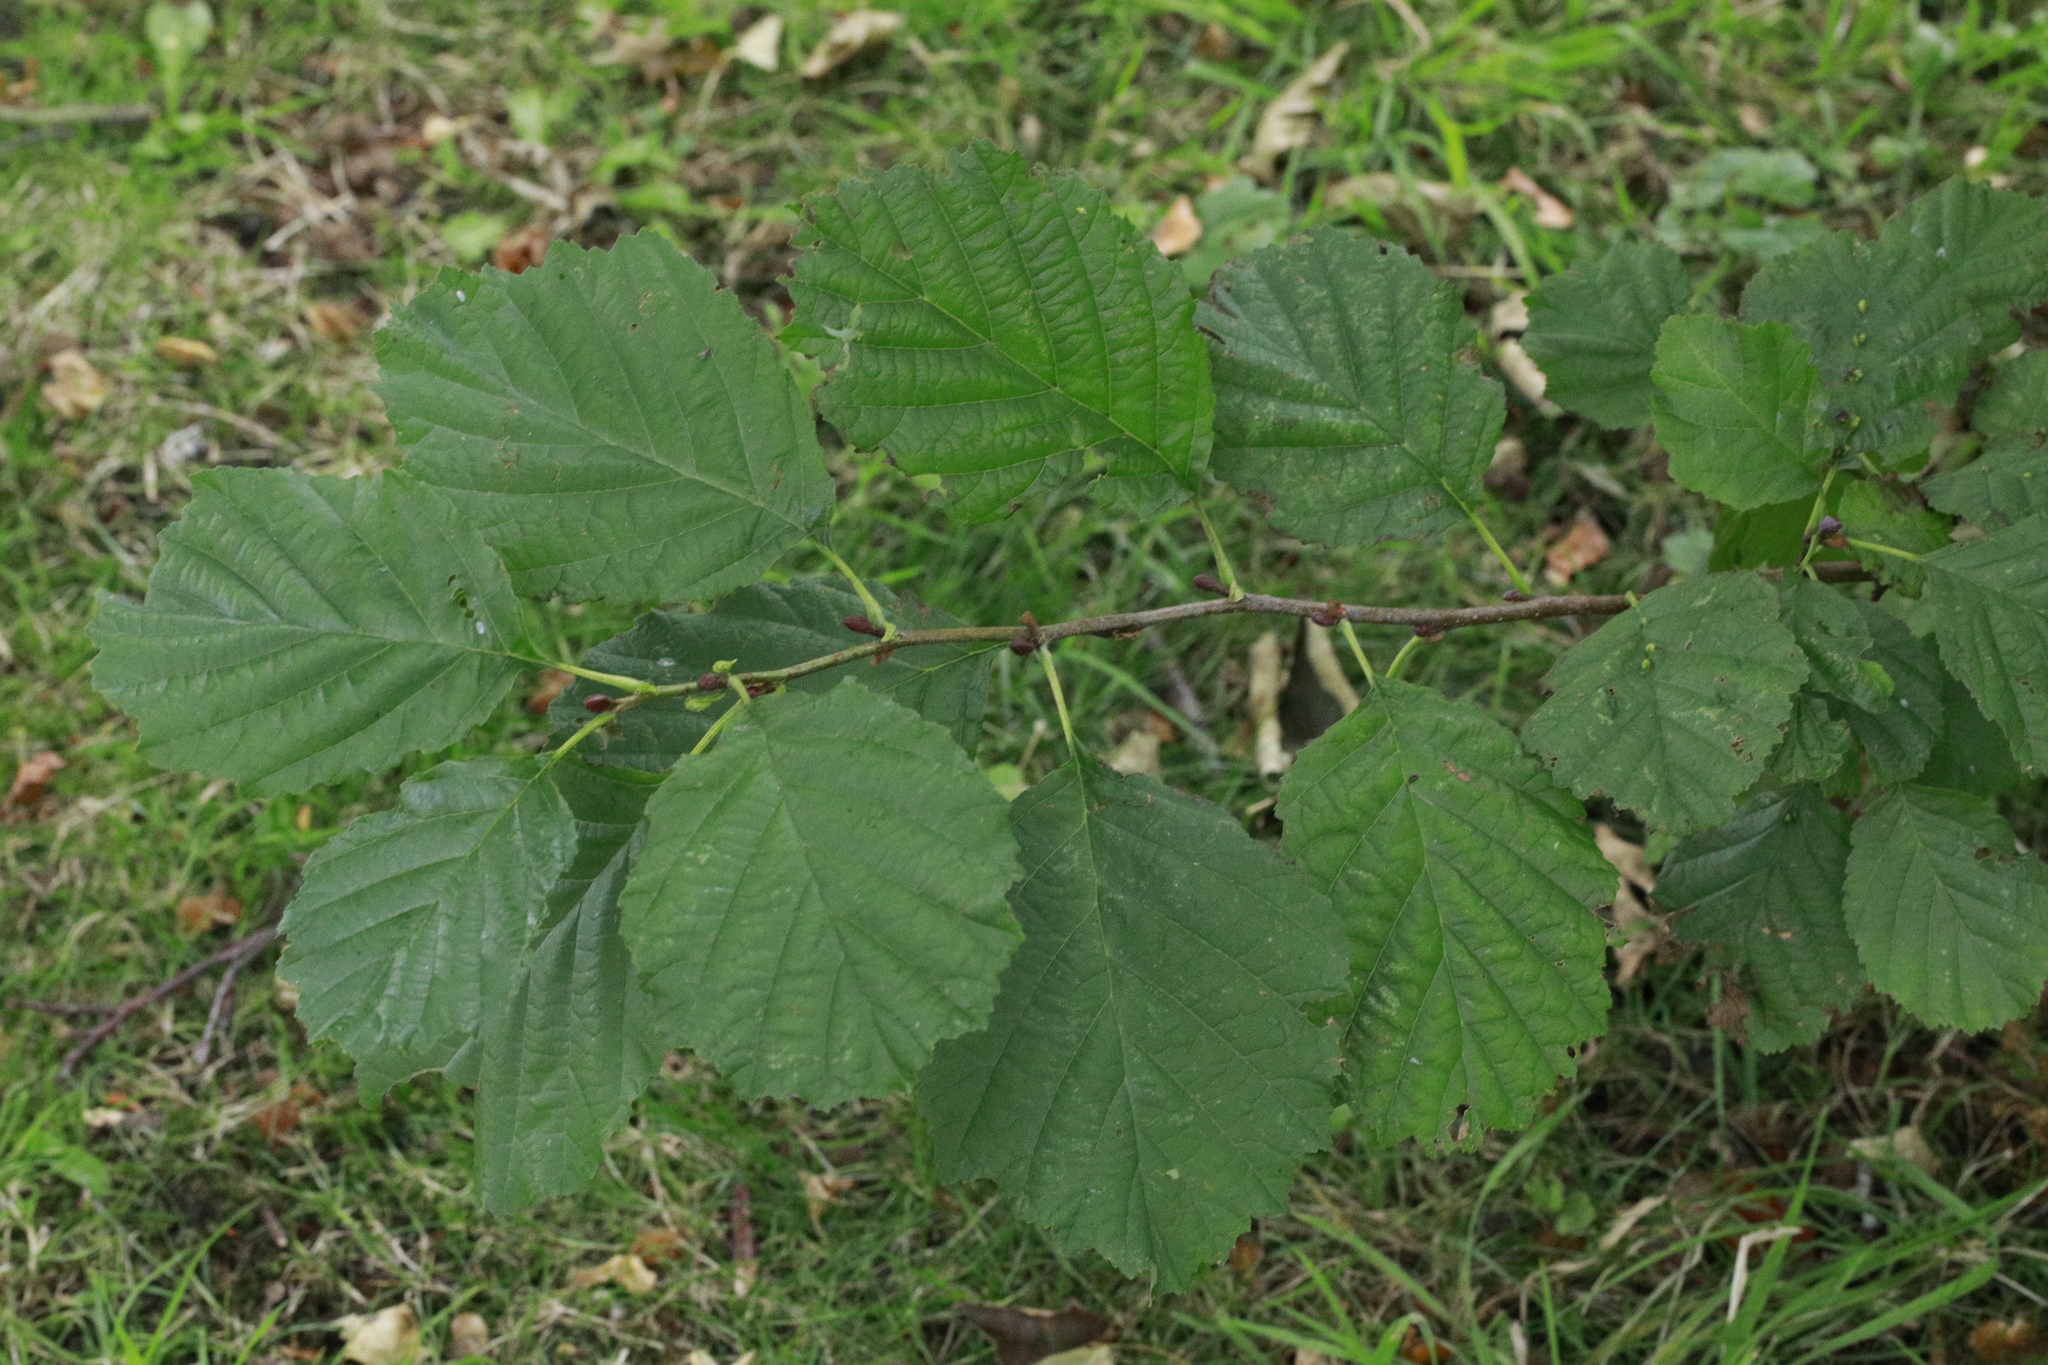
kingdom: Plantae
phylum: Tracheophyta
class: Magnoliopsida
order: Fagales
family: Betulaceae
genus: Alnus
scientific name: Alnus glutinosa
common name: Black alder
